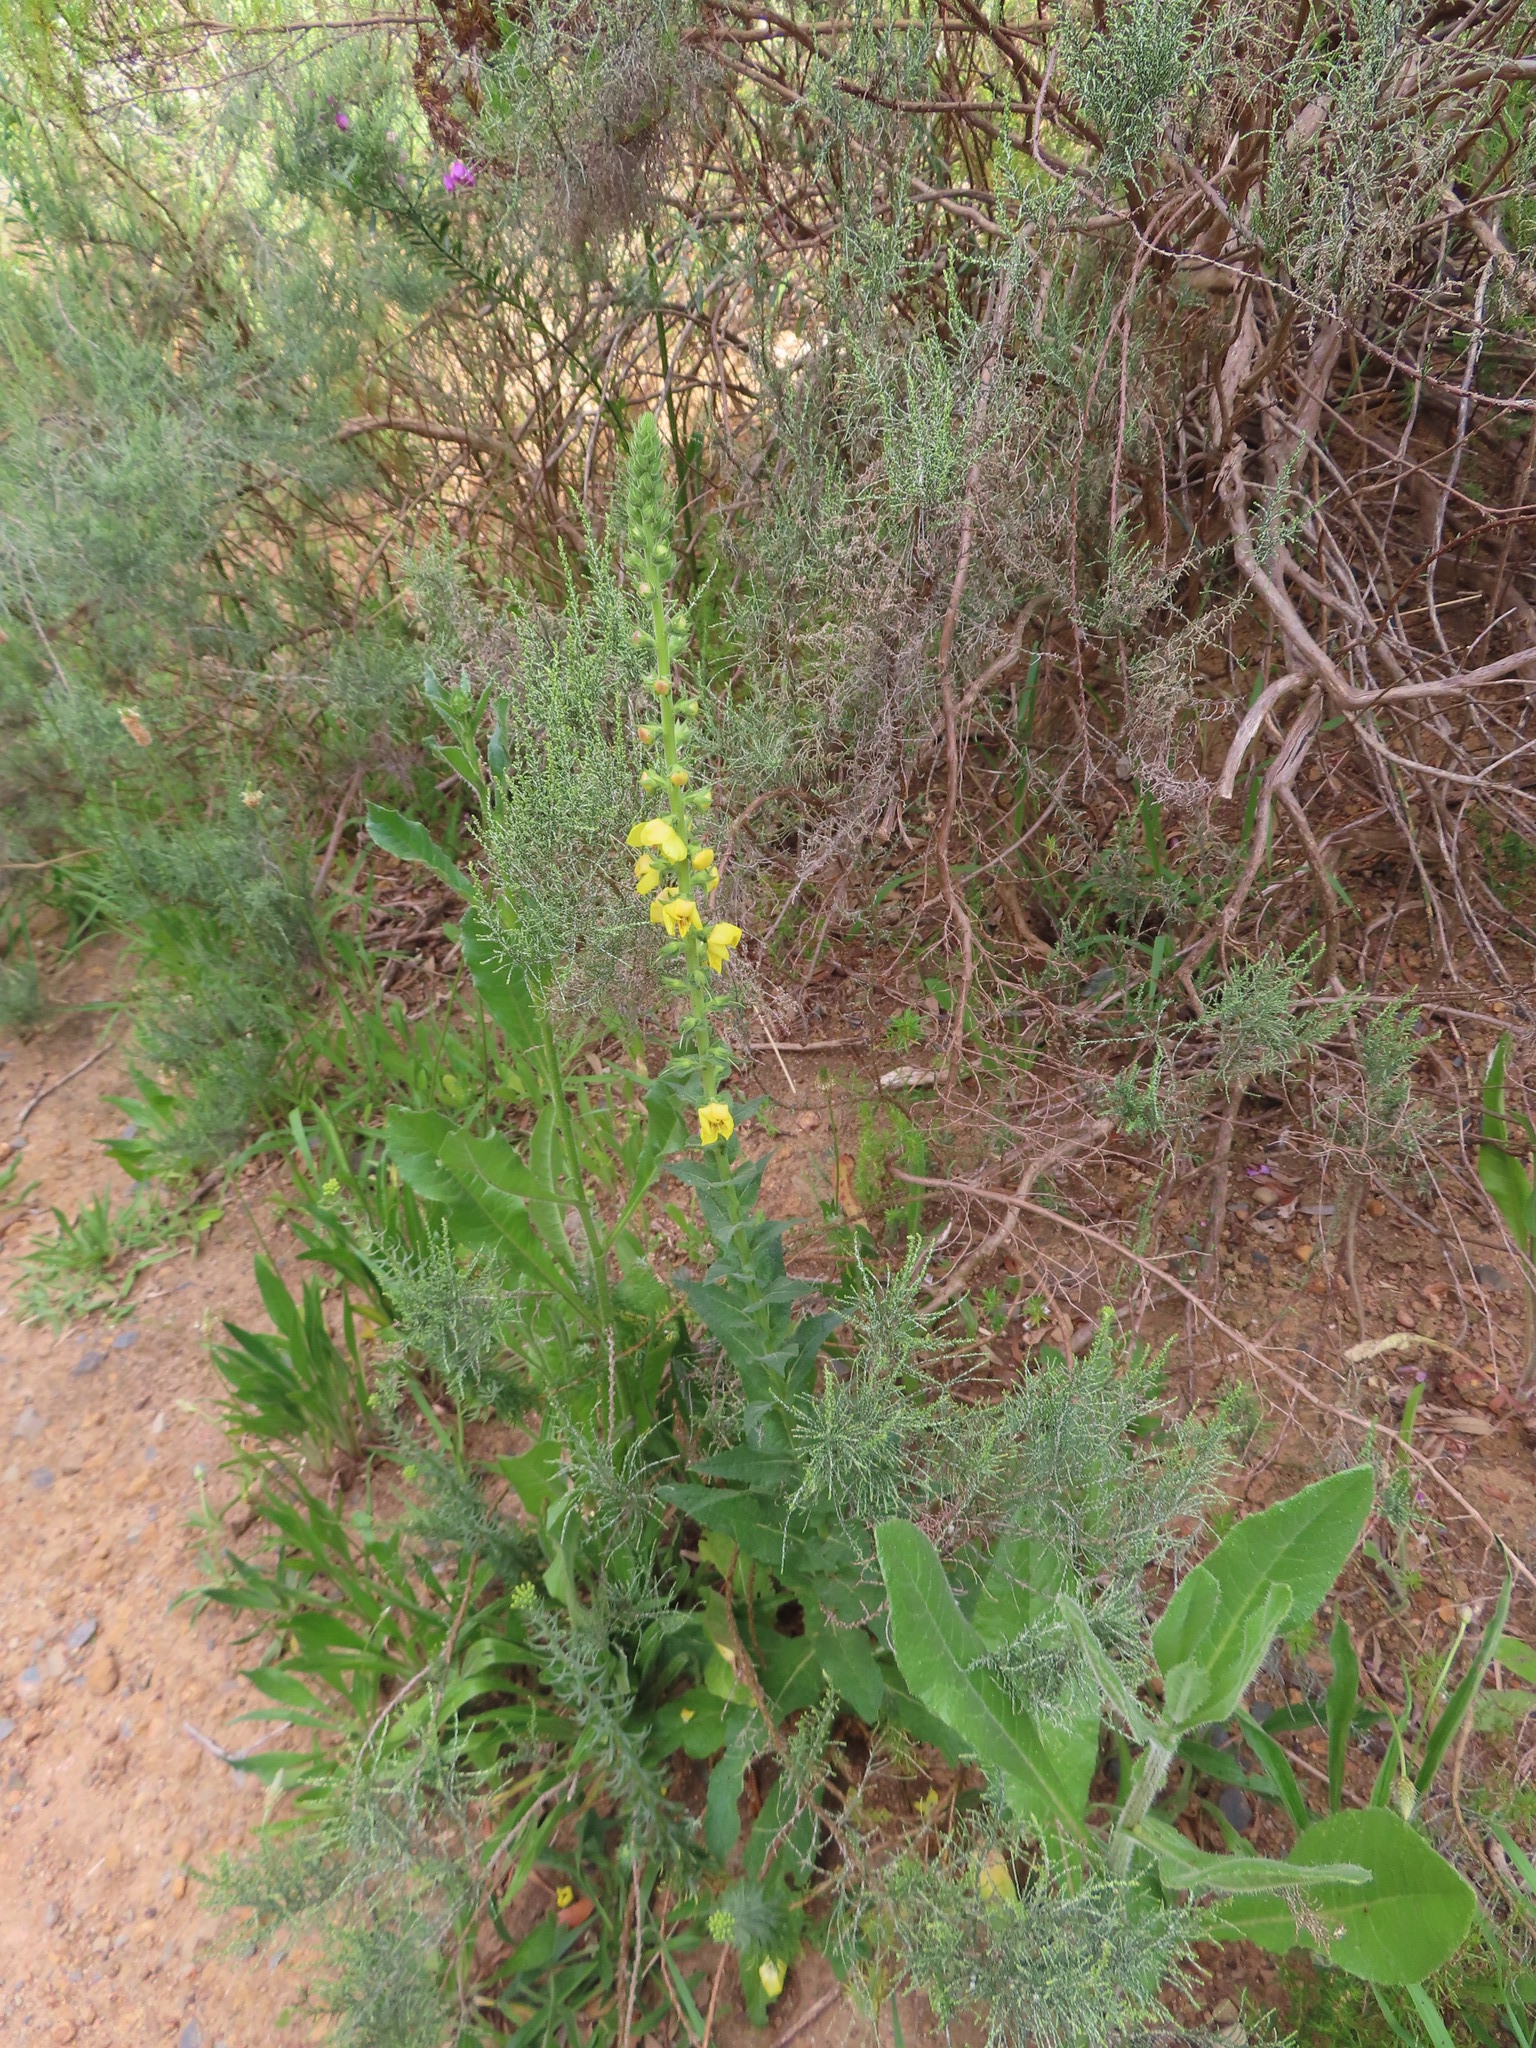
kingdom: Plantae
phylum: Tracheophyta
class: Magnoliopsida
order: Lamiales
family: Scrophulariaceae
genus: Verbascum
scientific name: Verbascum virgatum
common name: Twiggy mullein
